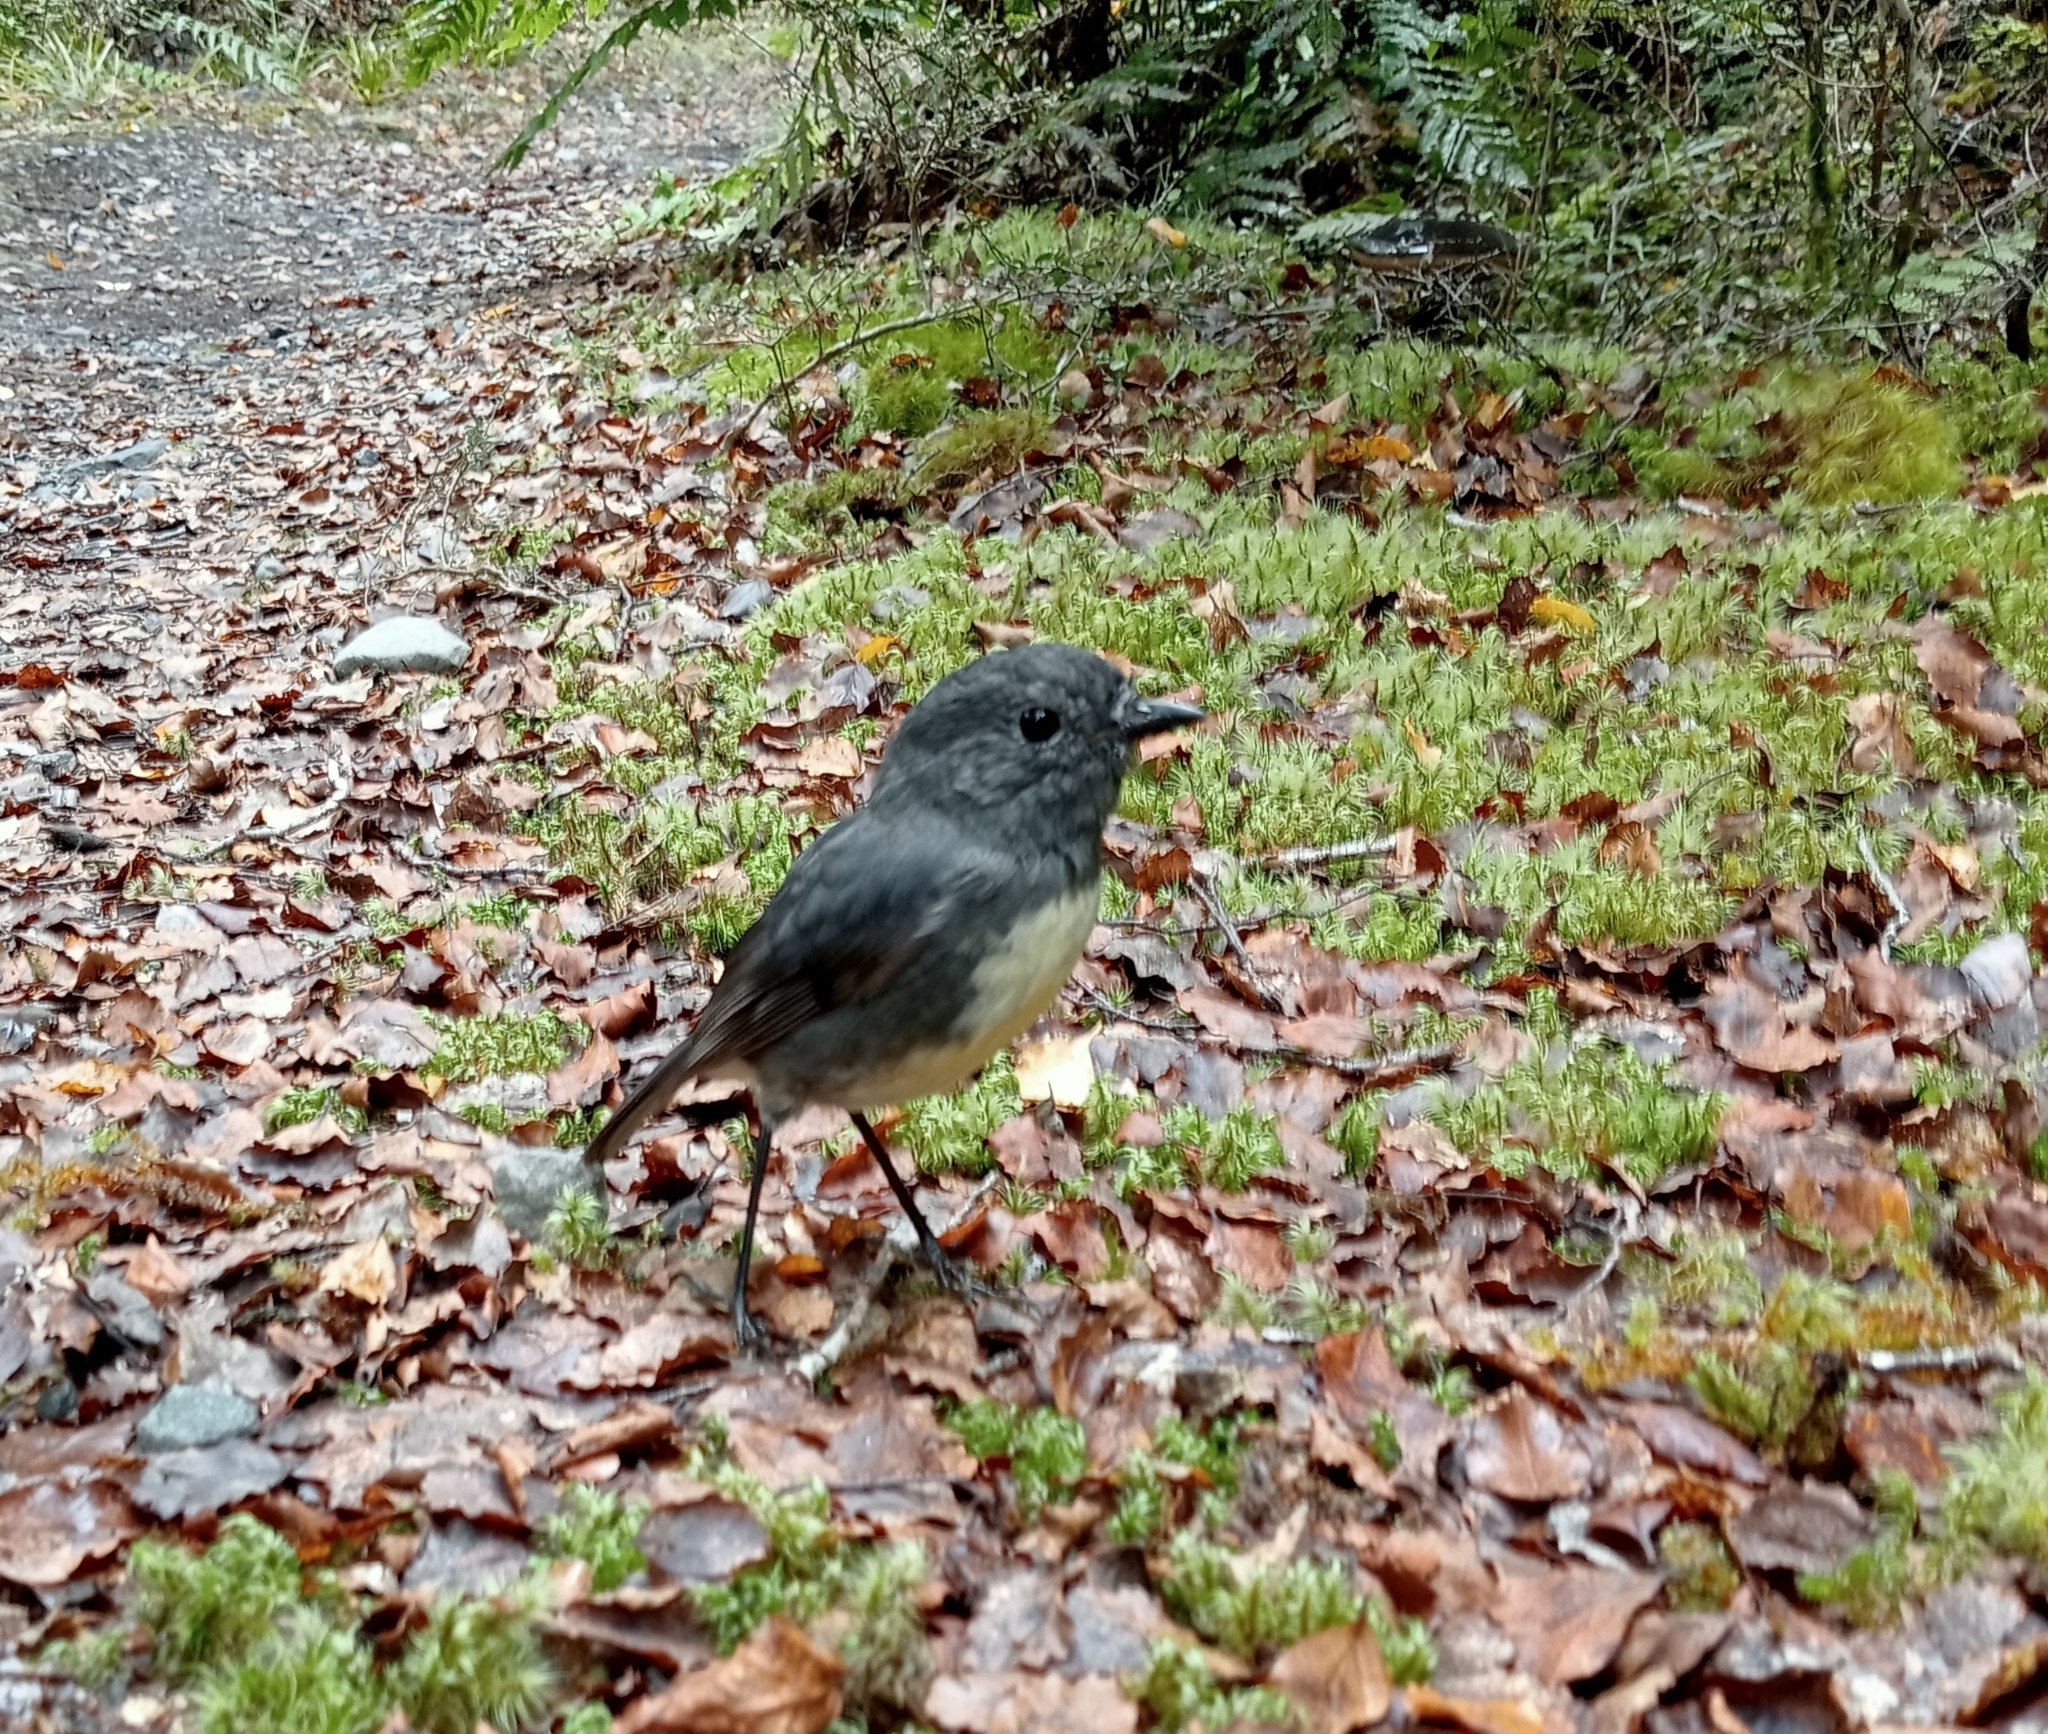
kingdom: Animalia
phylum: Chordata
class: Aves
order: Passeriformes
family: Petroicidae
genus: Petroica
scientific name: Petroica australis
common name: New zealand robin
